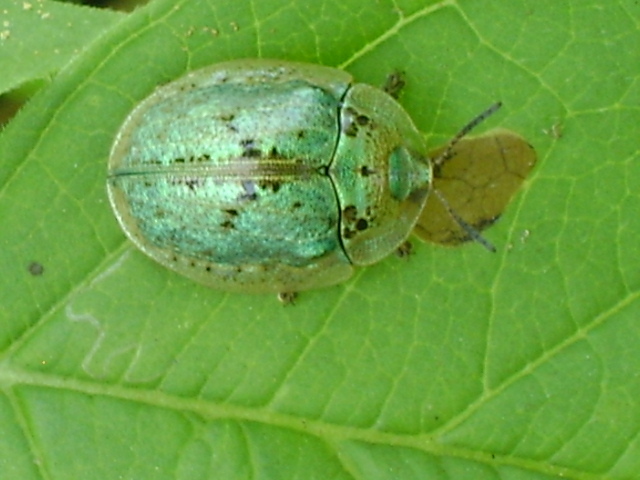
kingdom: Animalia
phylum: Arthropoda
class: Insecta
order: Coleoptera
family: Chrysomelidae
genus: Physonota
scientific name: Physonota alutacea
